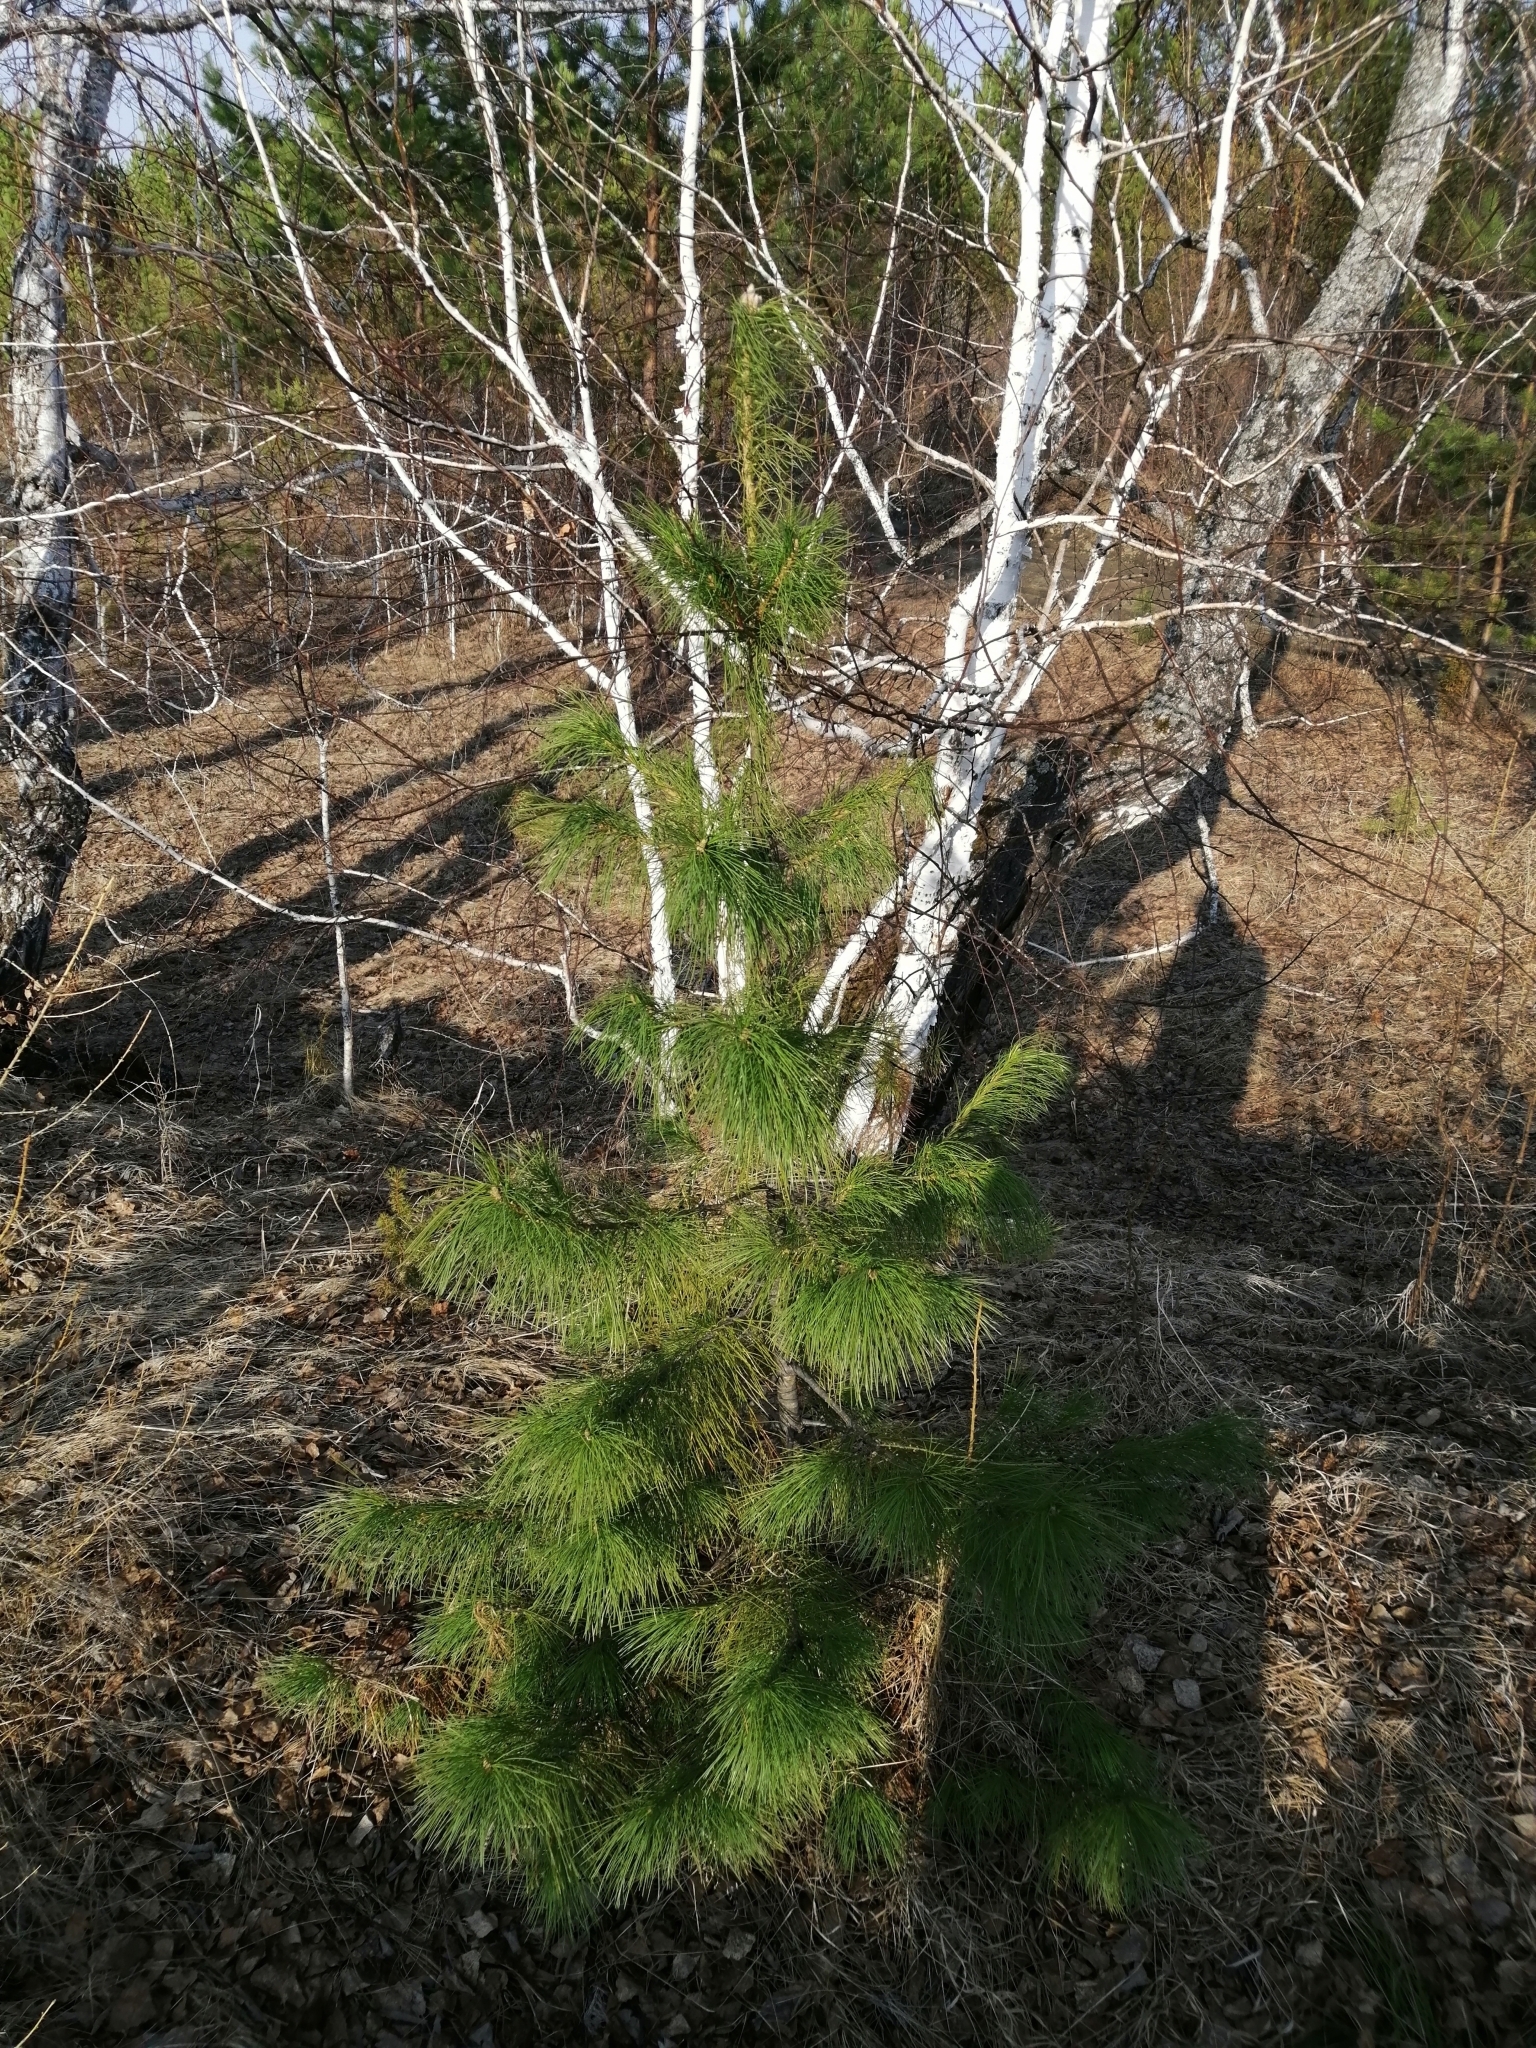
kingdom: Plantae
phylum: Tracheophyta
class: Pinopsida
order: Pinales
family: Pinaceae
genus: Pinus
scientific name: Pinus sibirica
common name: Siberian pine
